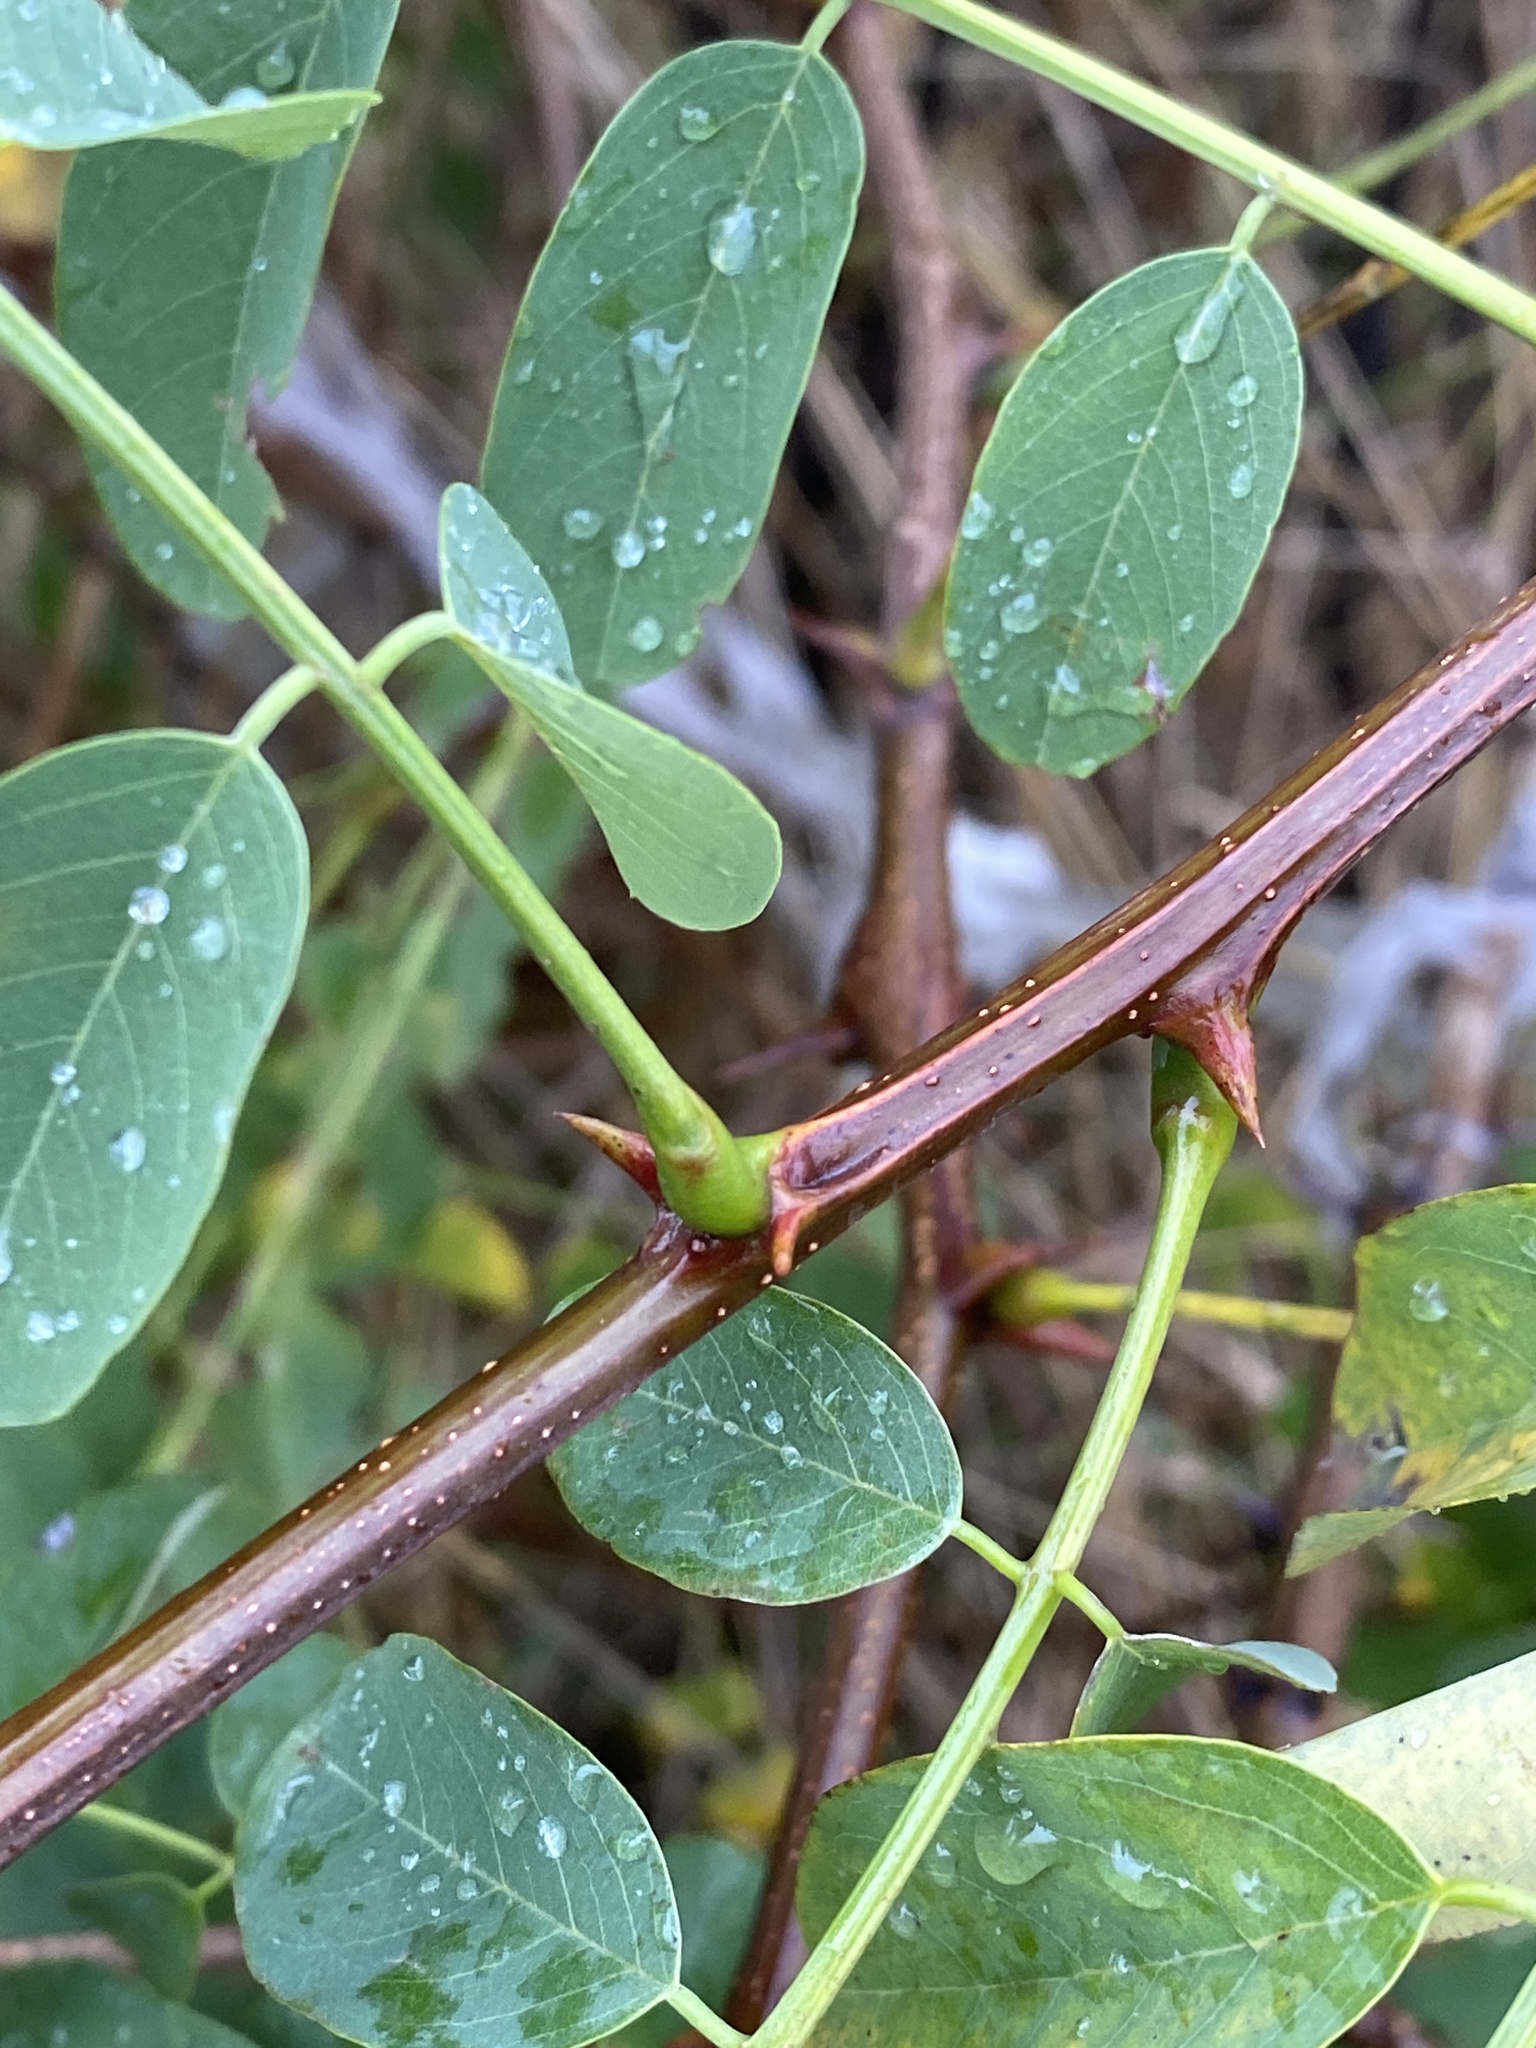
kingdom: Plantae
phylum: Tracheophyta
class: Magnoliopsida
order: Fabales
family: Fabaceae
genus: Robinia
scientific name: Robinia pseudoacacia
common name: Black locust
